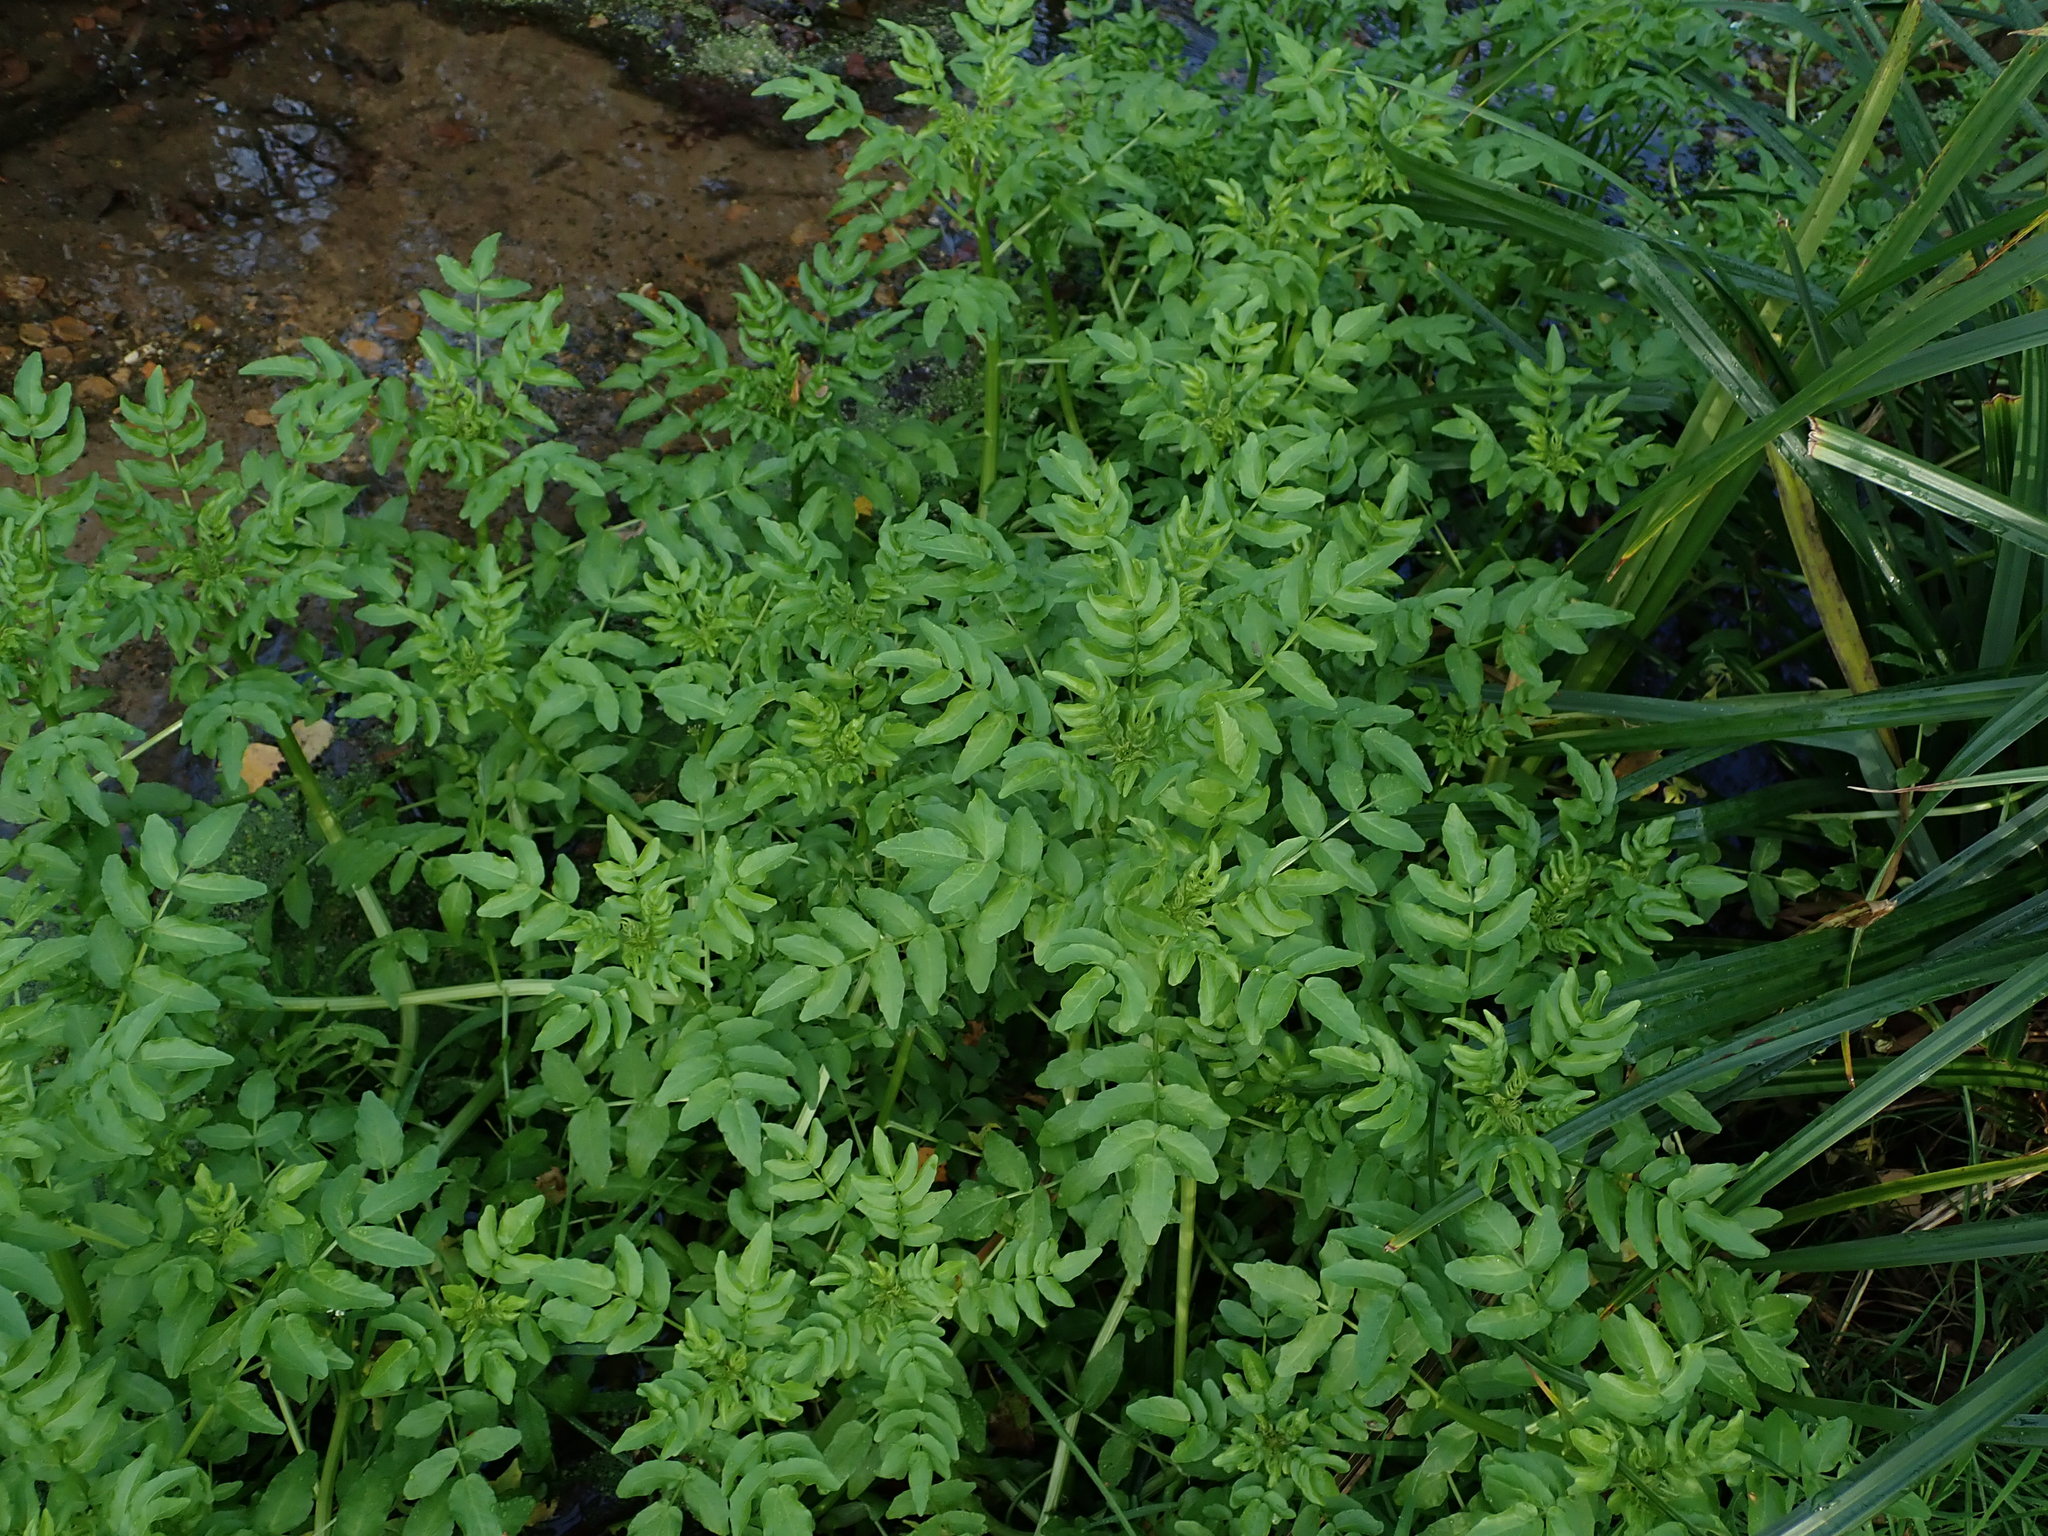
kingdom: Plantae
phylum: Tracheophyta
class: Magnoliopsida
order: Brassicales
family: Brassicaceae
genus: Nasturtium
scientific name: Nasturtium officinale
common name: Watercress
